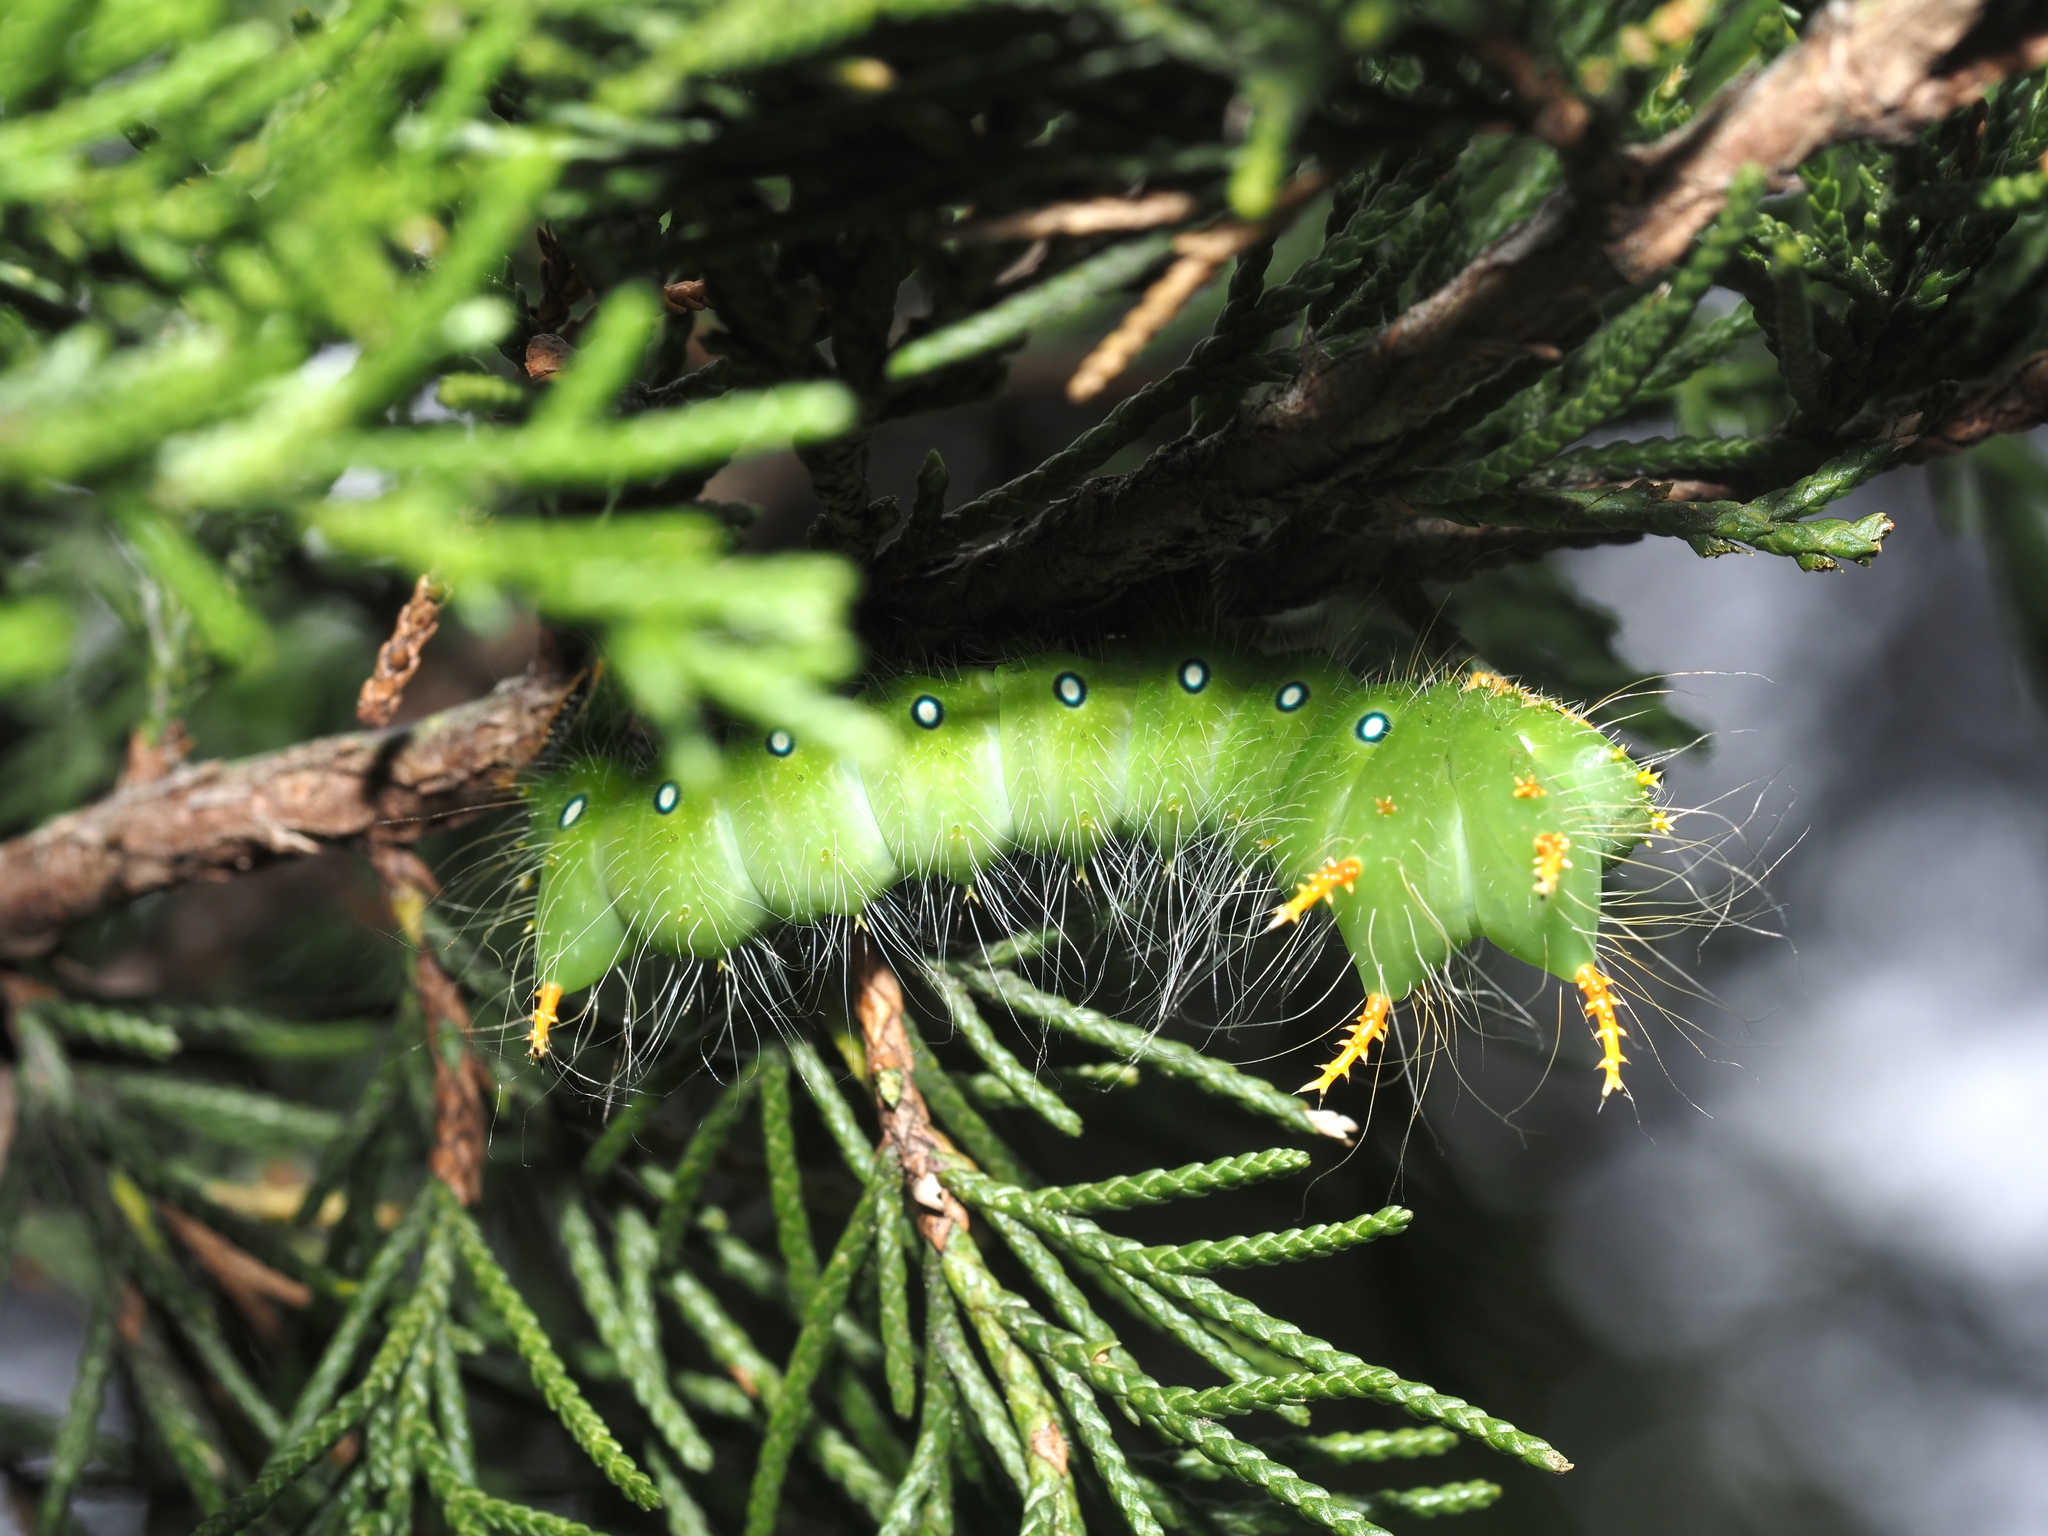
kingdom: Animalia
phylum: Arthropoda
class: Insecta
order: Lepidoptera
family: Saturniidae
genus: Eacles
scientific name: Eacles imperialis
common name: Imperial moth
